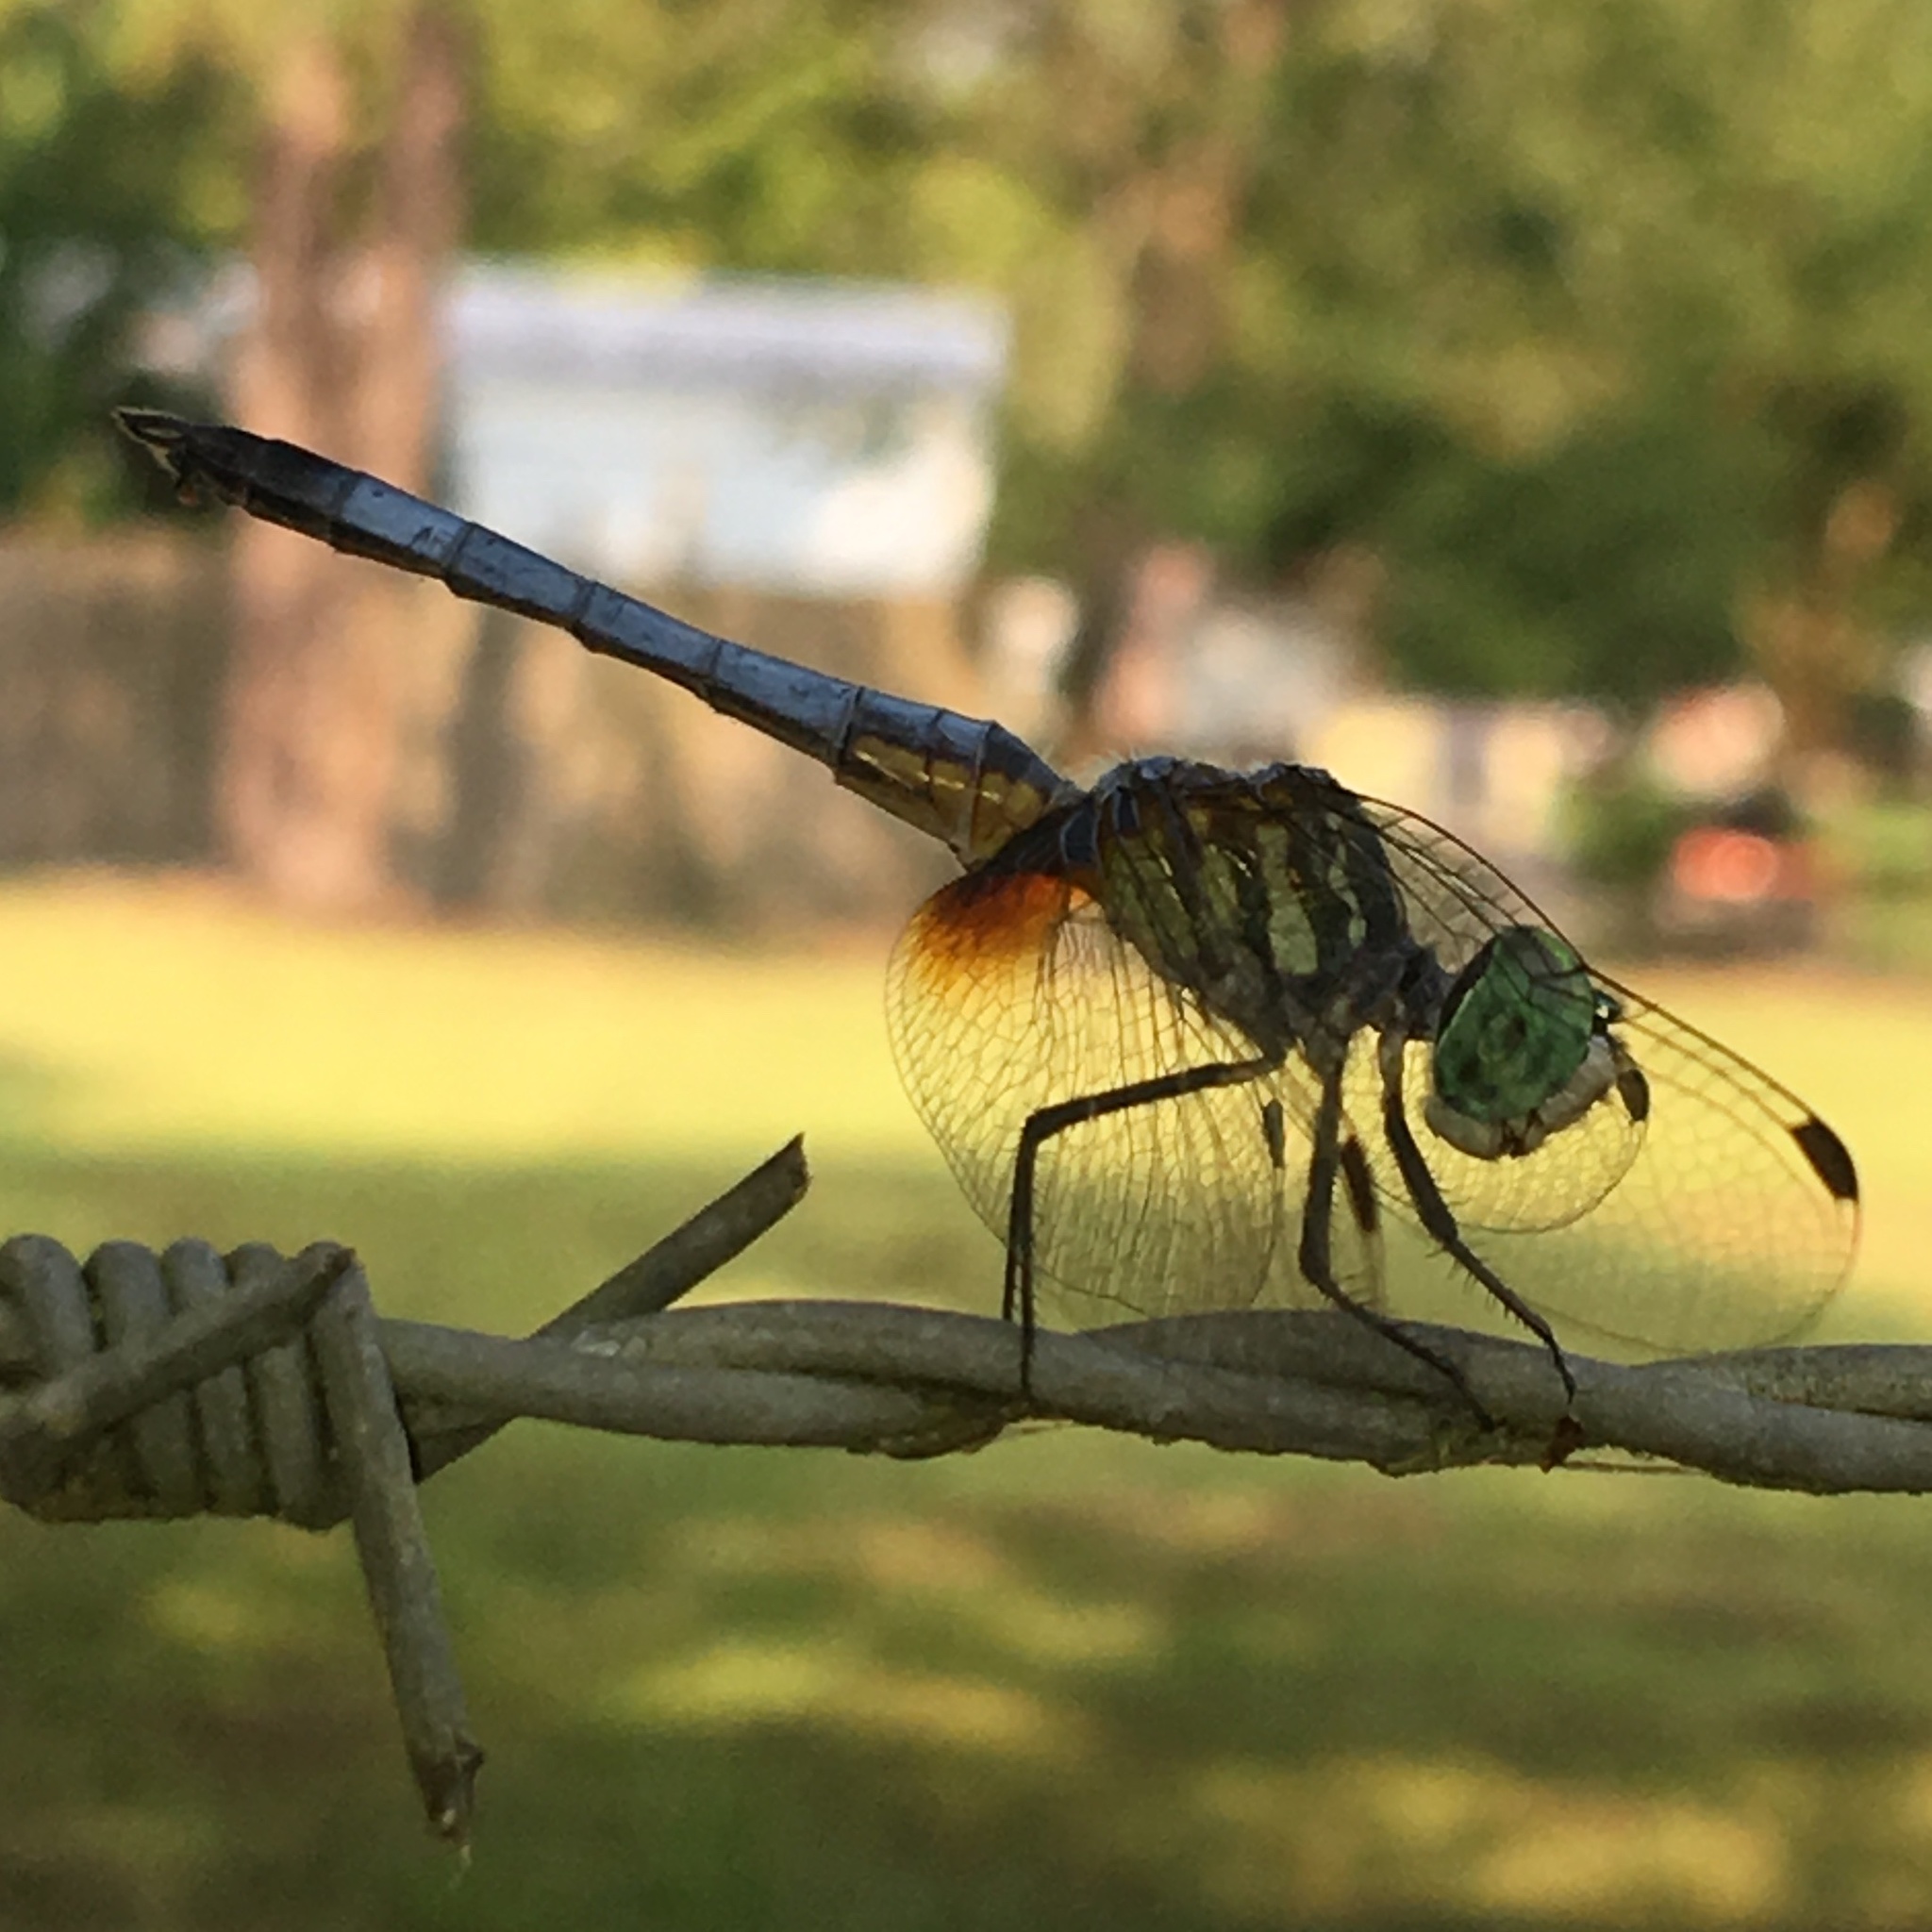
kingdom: Animalia
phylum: Arthropoda
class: Insecta
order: Odonata
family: Libellulidae
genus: Pachydiplax
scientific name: Pachydiplax longipennis
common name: Blue dasher
